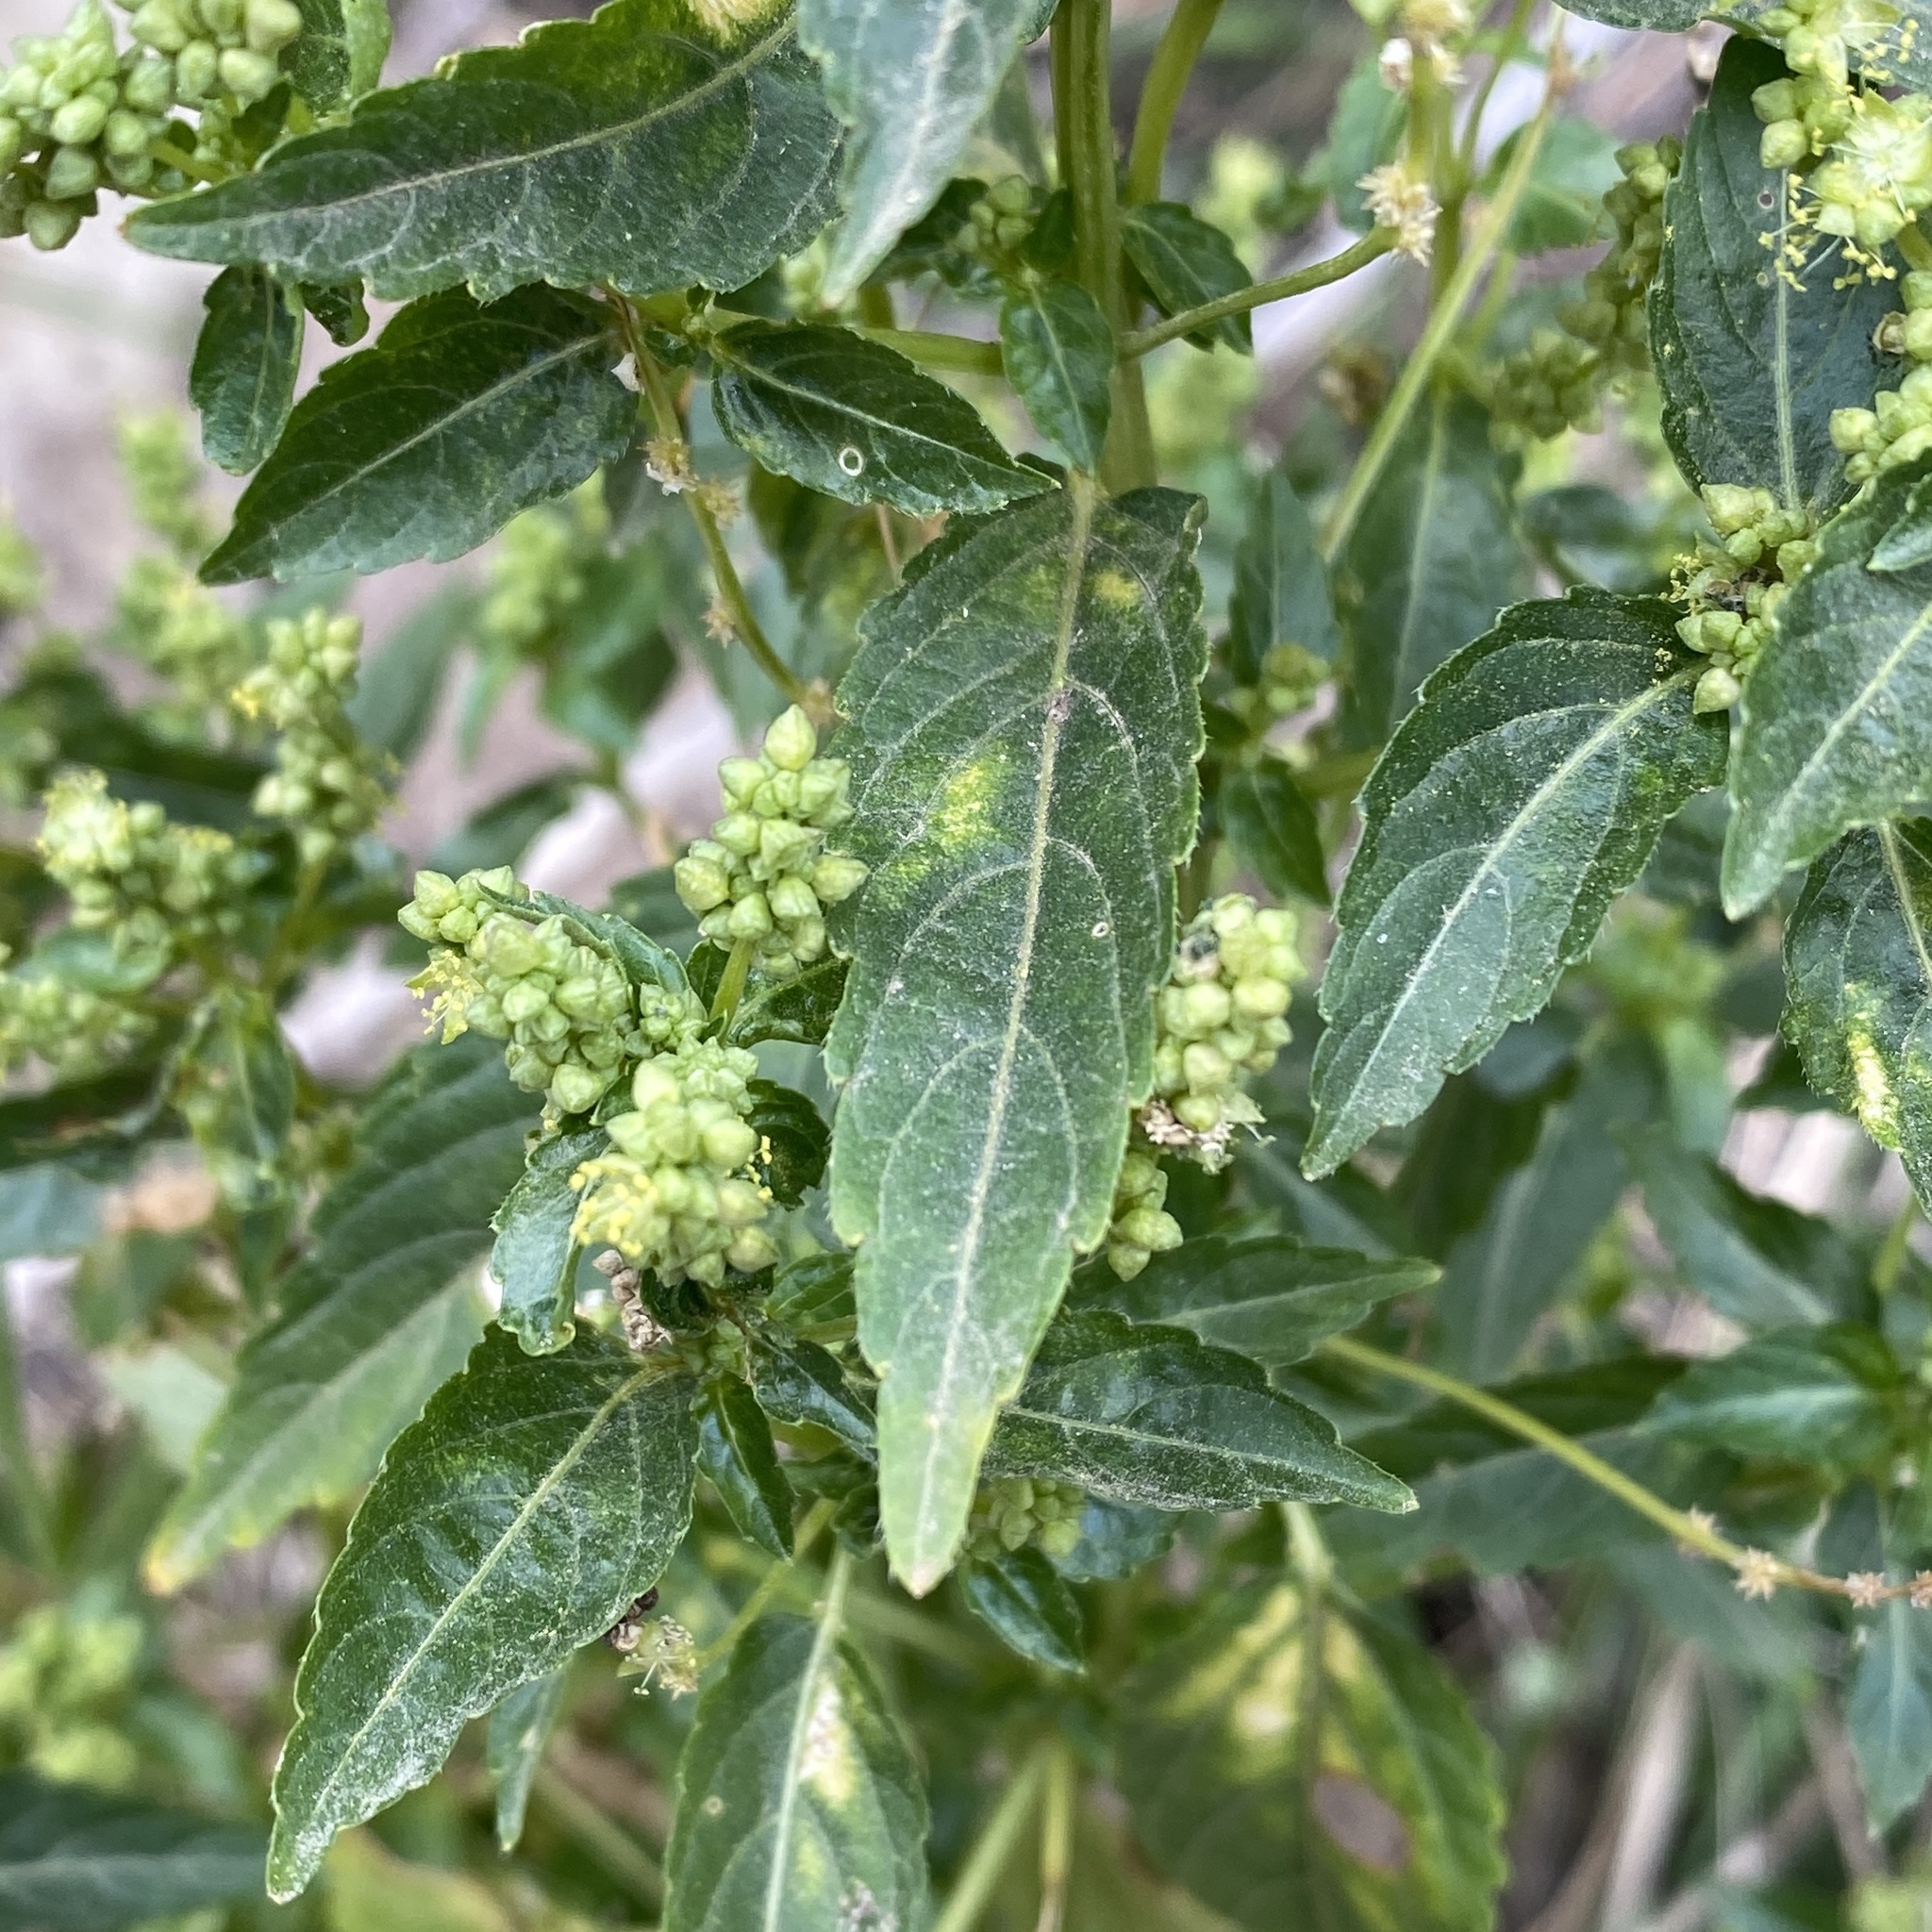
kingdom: Plantae
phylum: Tracheophyta
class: Magnoliopsida
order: Malpighiales
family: Euphorbiaceae
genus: Mercurialis
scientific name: Mercurialis annua
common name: Annual mercury
